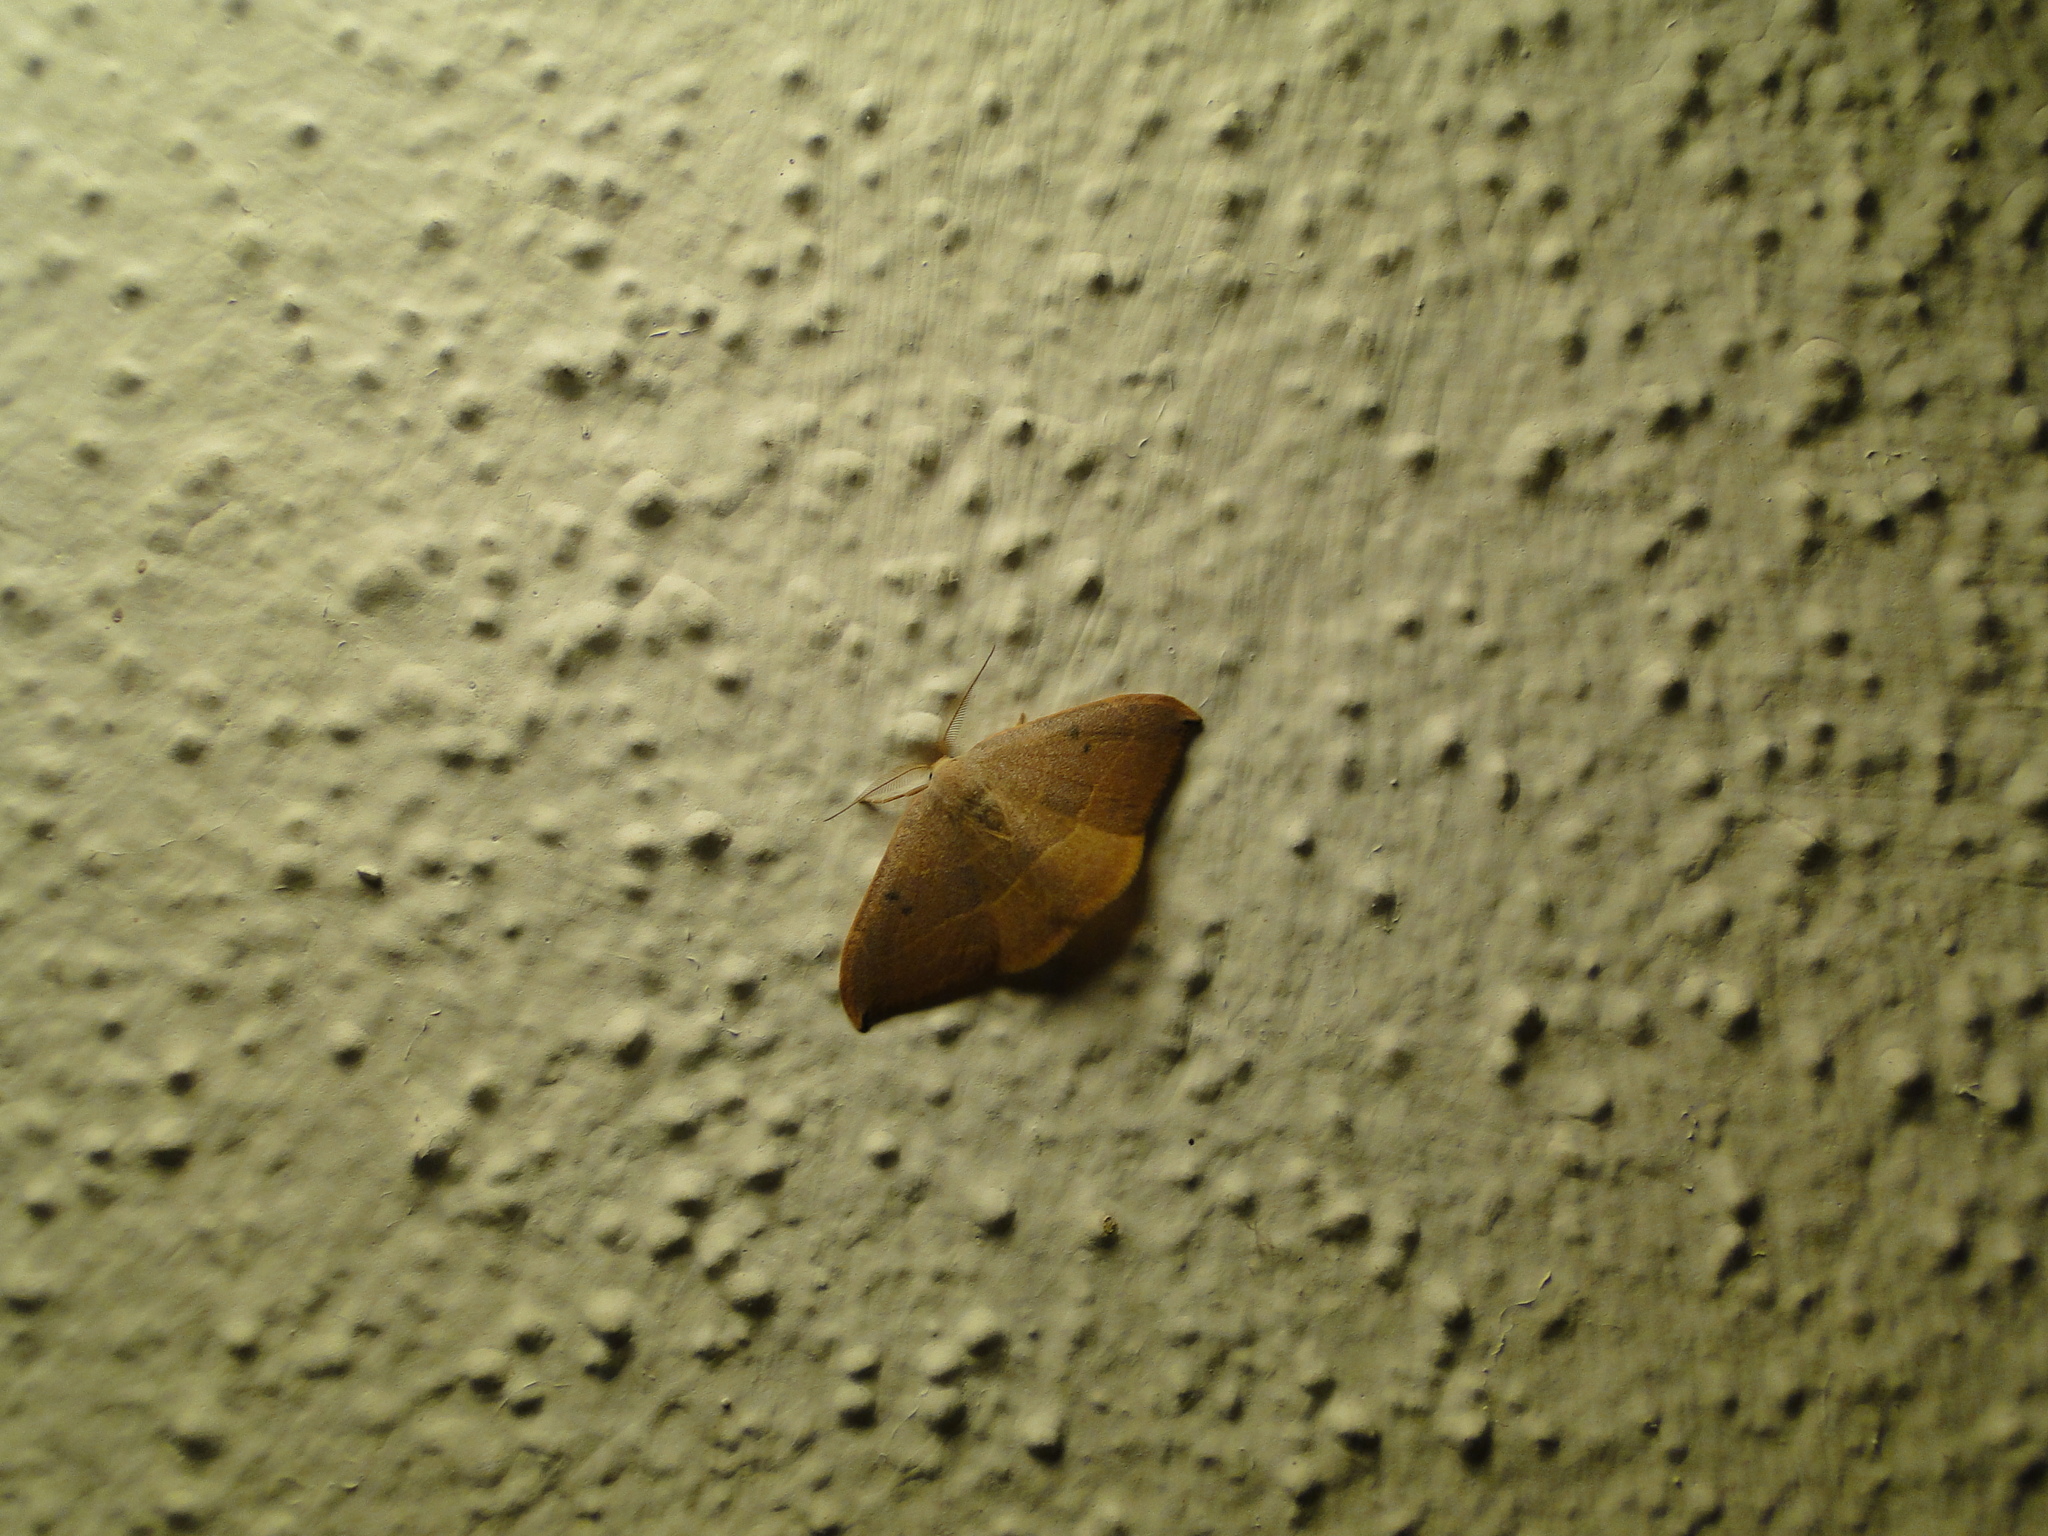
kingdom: Animalia
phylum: Arthropoda
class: Insecta
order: Lepidoptera
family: Drepanidae
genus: Watsonalla
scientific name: Watsonalla binaria
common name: Oak hook-tip
